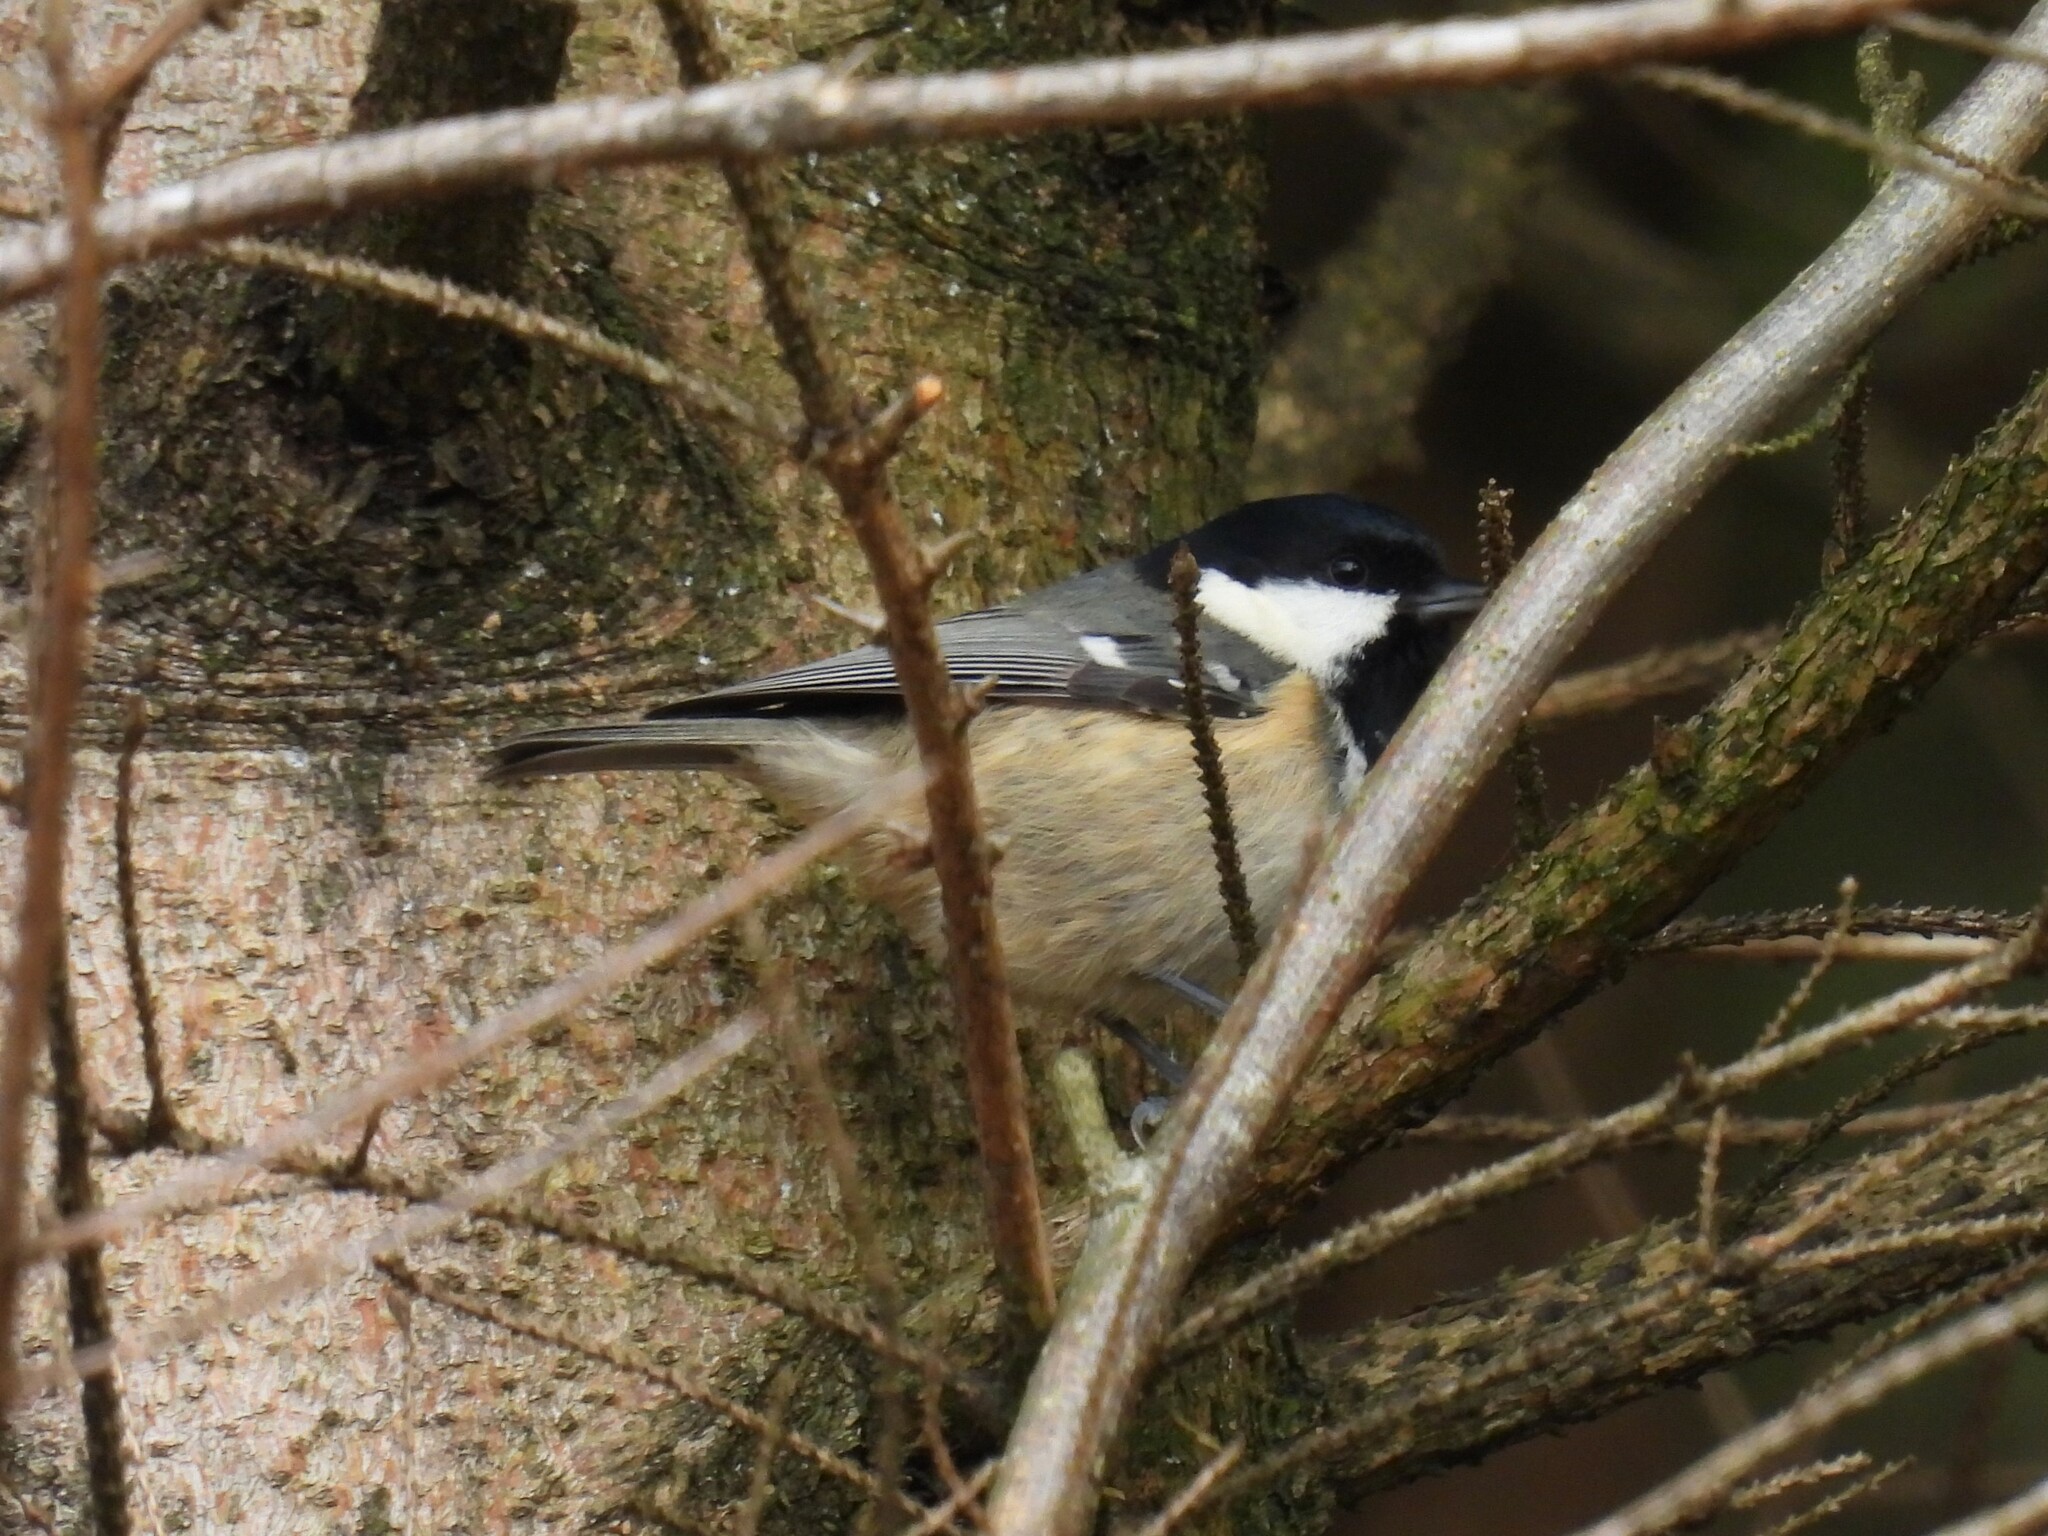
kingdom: Animalia
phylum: Chordata
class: Aves
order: Passeriformes
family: Paridae
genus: Periparus
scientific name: Periparus ater
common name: Coal tit
